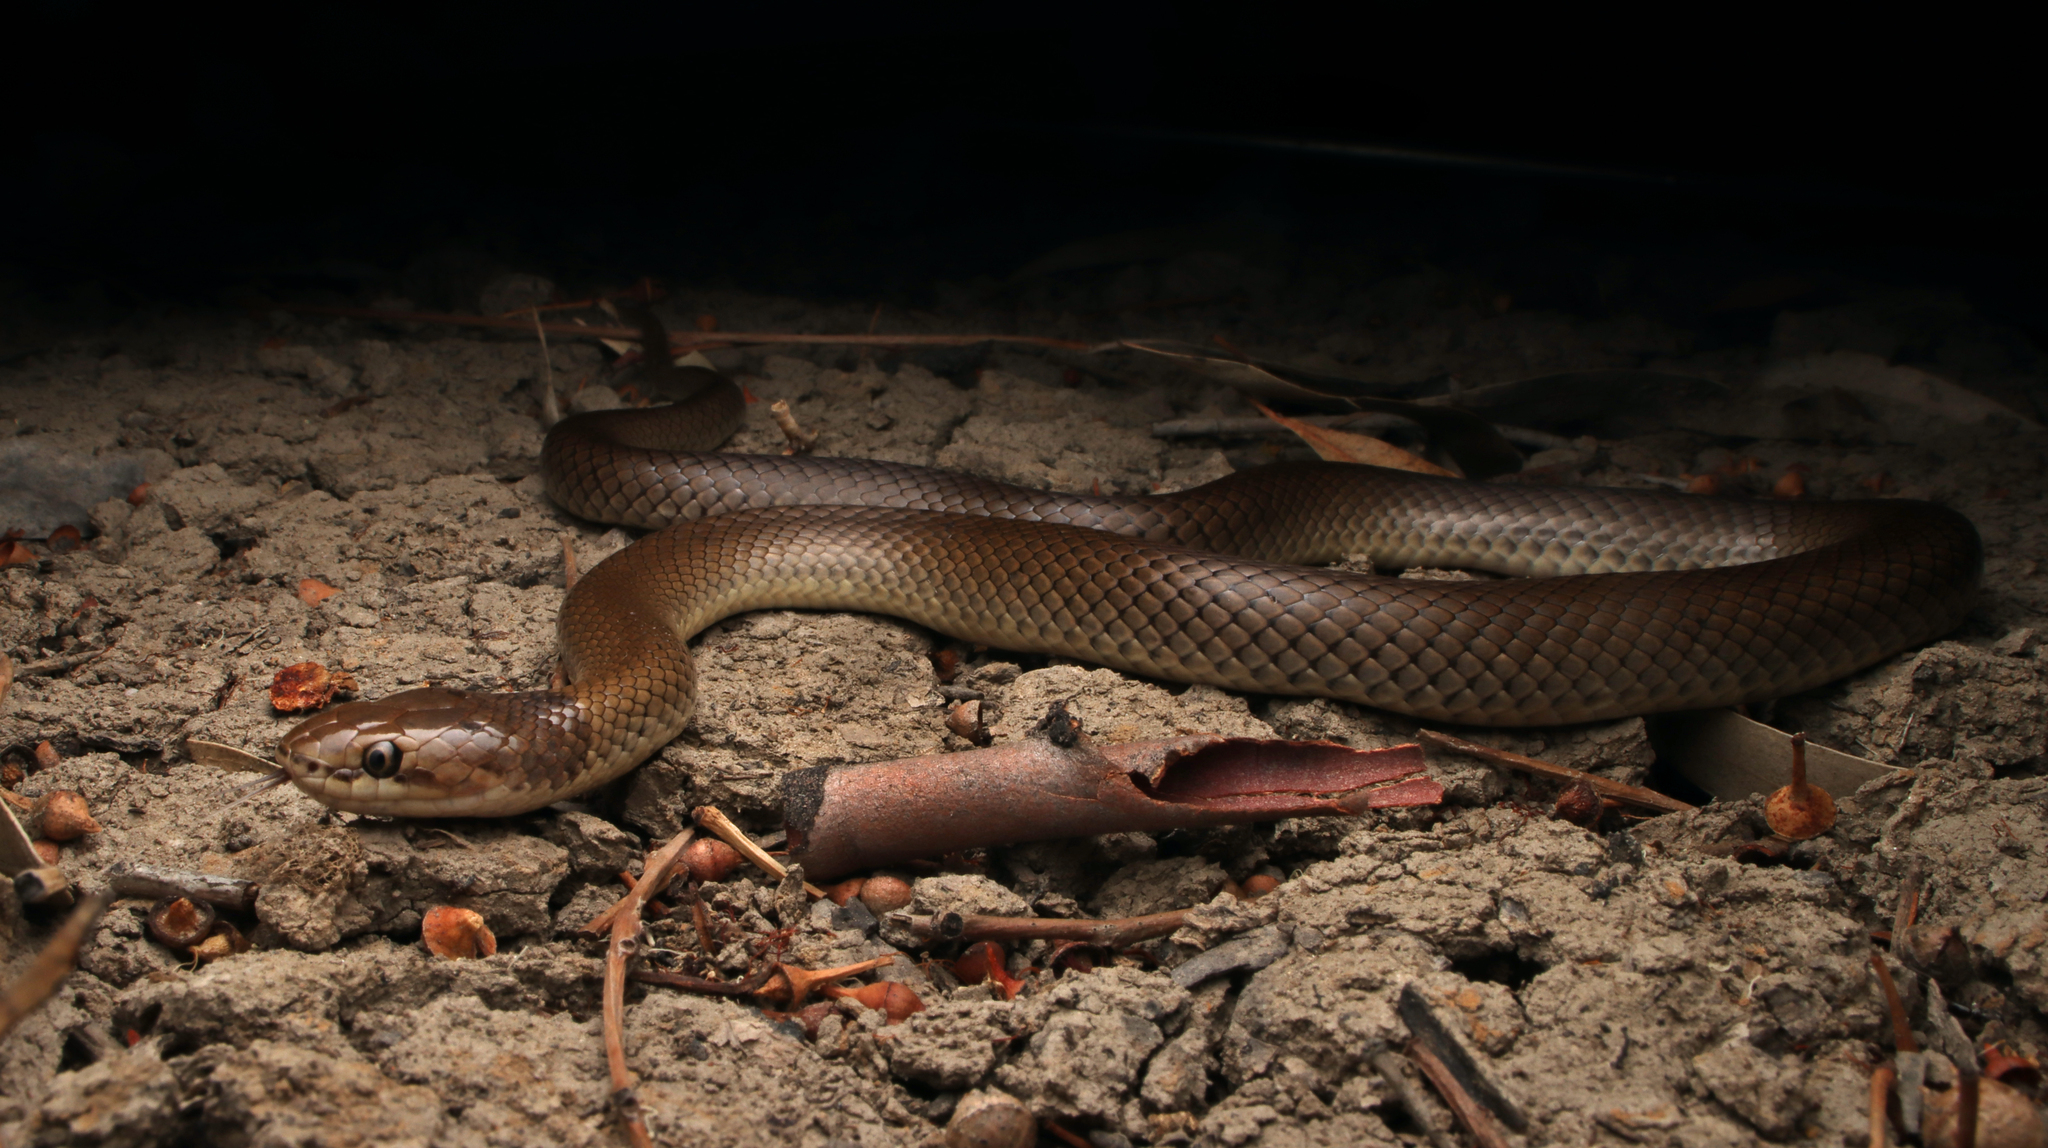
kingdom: Animalia
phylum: Chordata
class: Squamata
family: Elapidae
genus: Suta
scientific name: Suta suta
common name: Curl snake
